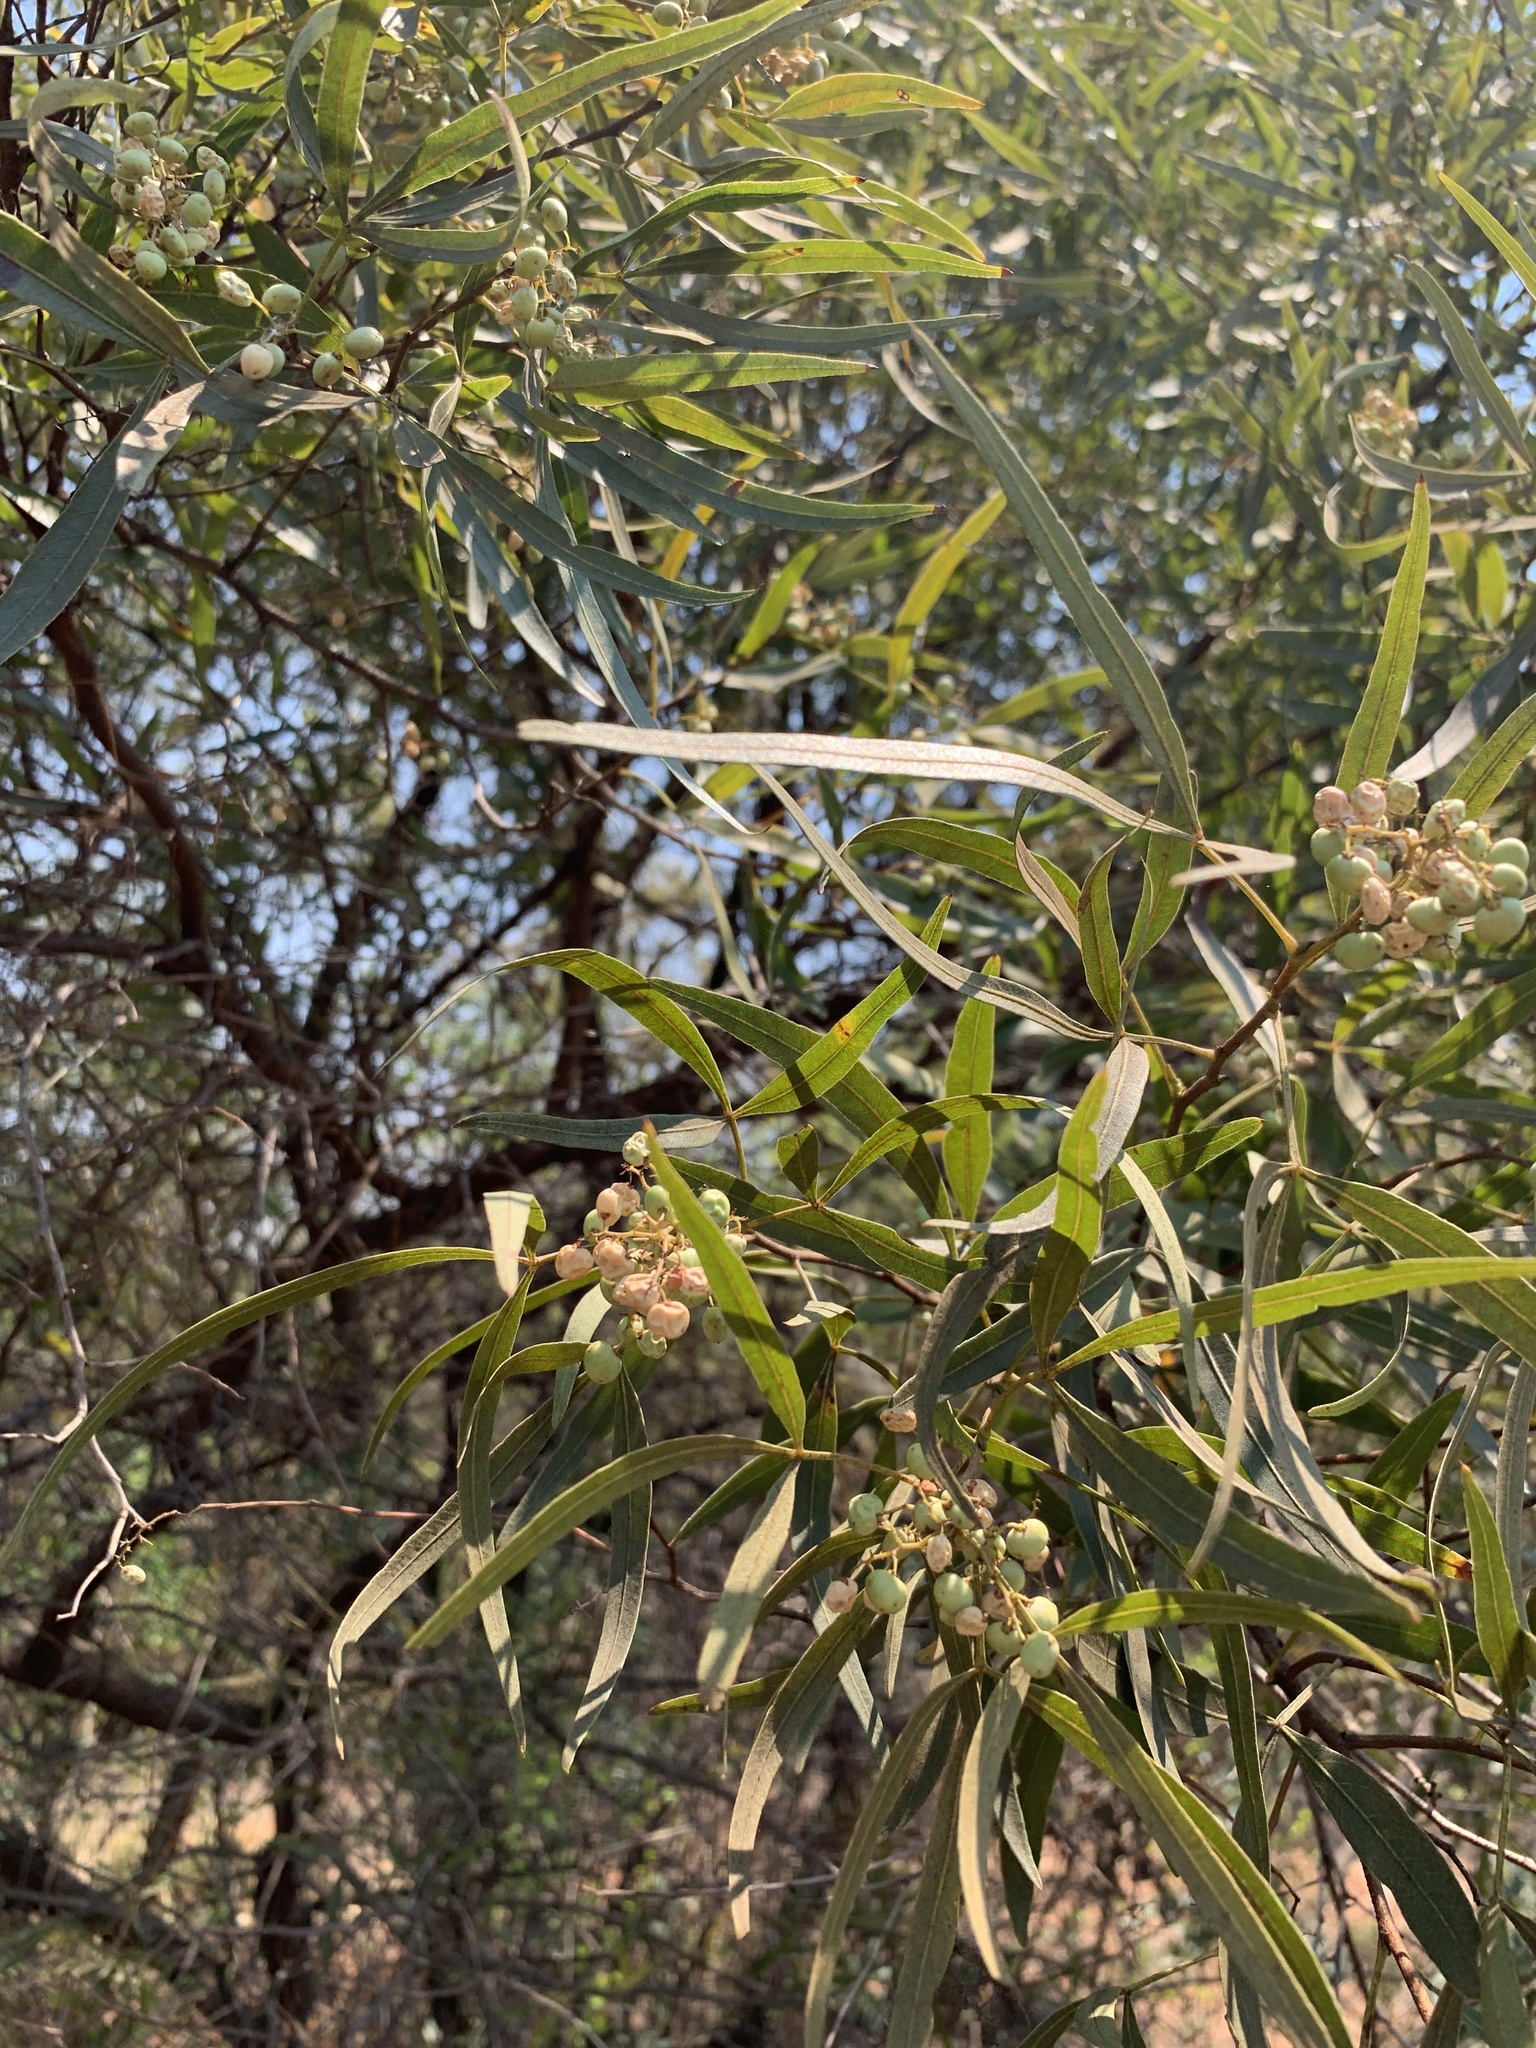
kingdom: Plantae
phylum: Tracheophyta
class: Magnoliopsida
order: Sapindales
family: Anacardiaceae
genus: Searsia
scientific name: Searsia lancea
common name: Cashew
